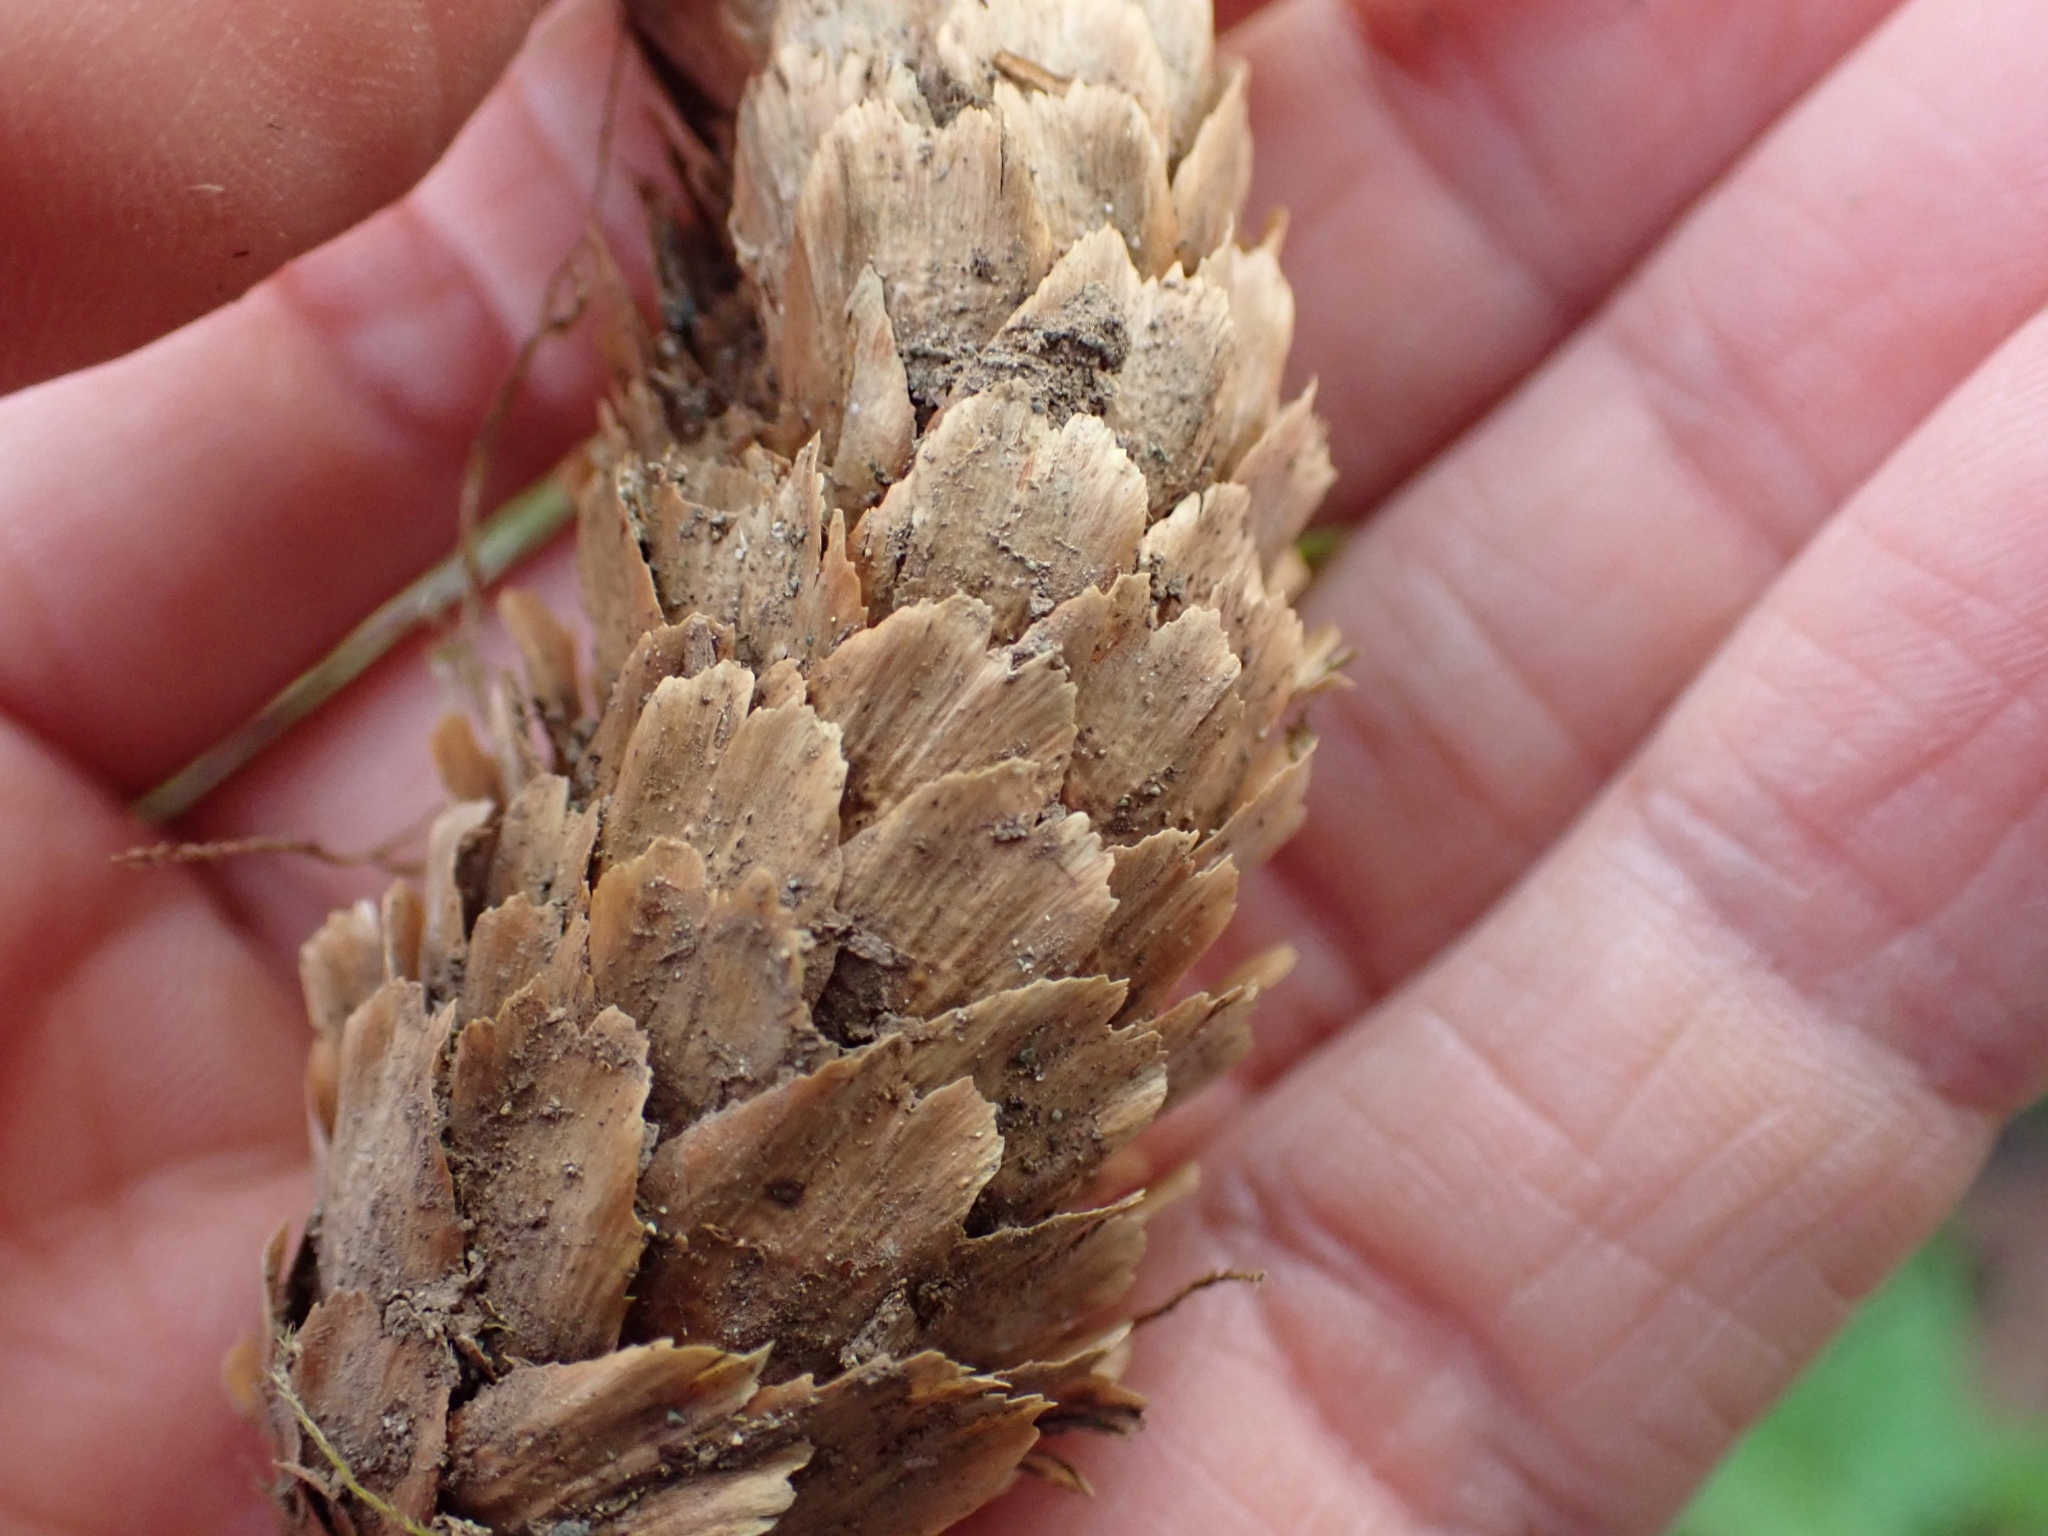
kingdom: Plantae
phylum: Tracheophyta
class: Pinopsida
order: Pinales
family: Pinaceae
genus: Picea
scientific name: Picea sitchensis
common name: Sitka spruce
